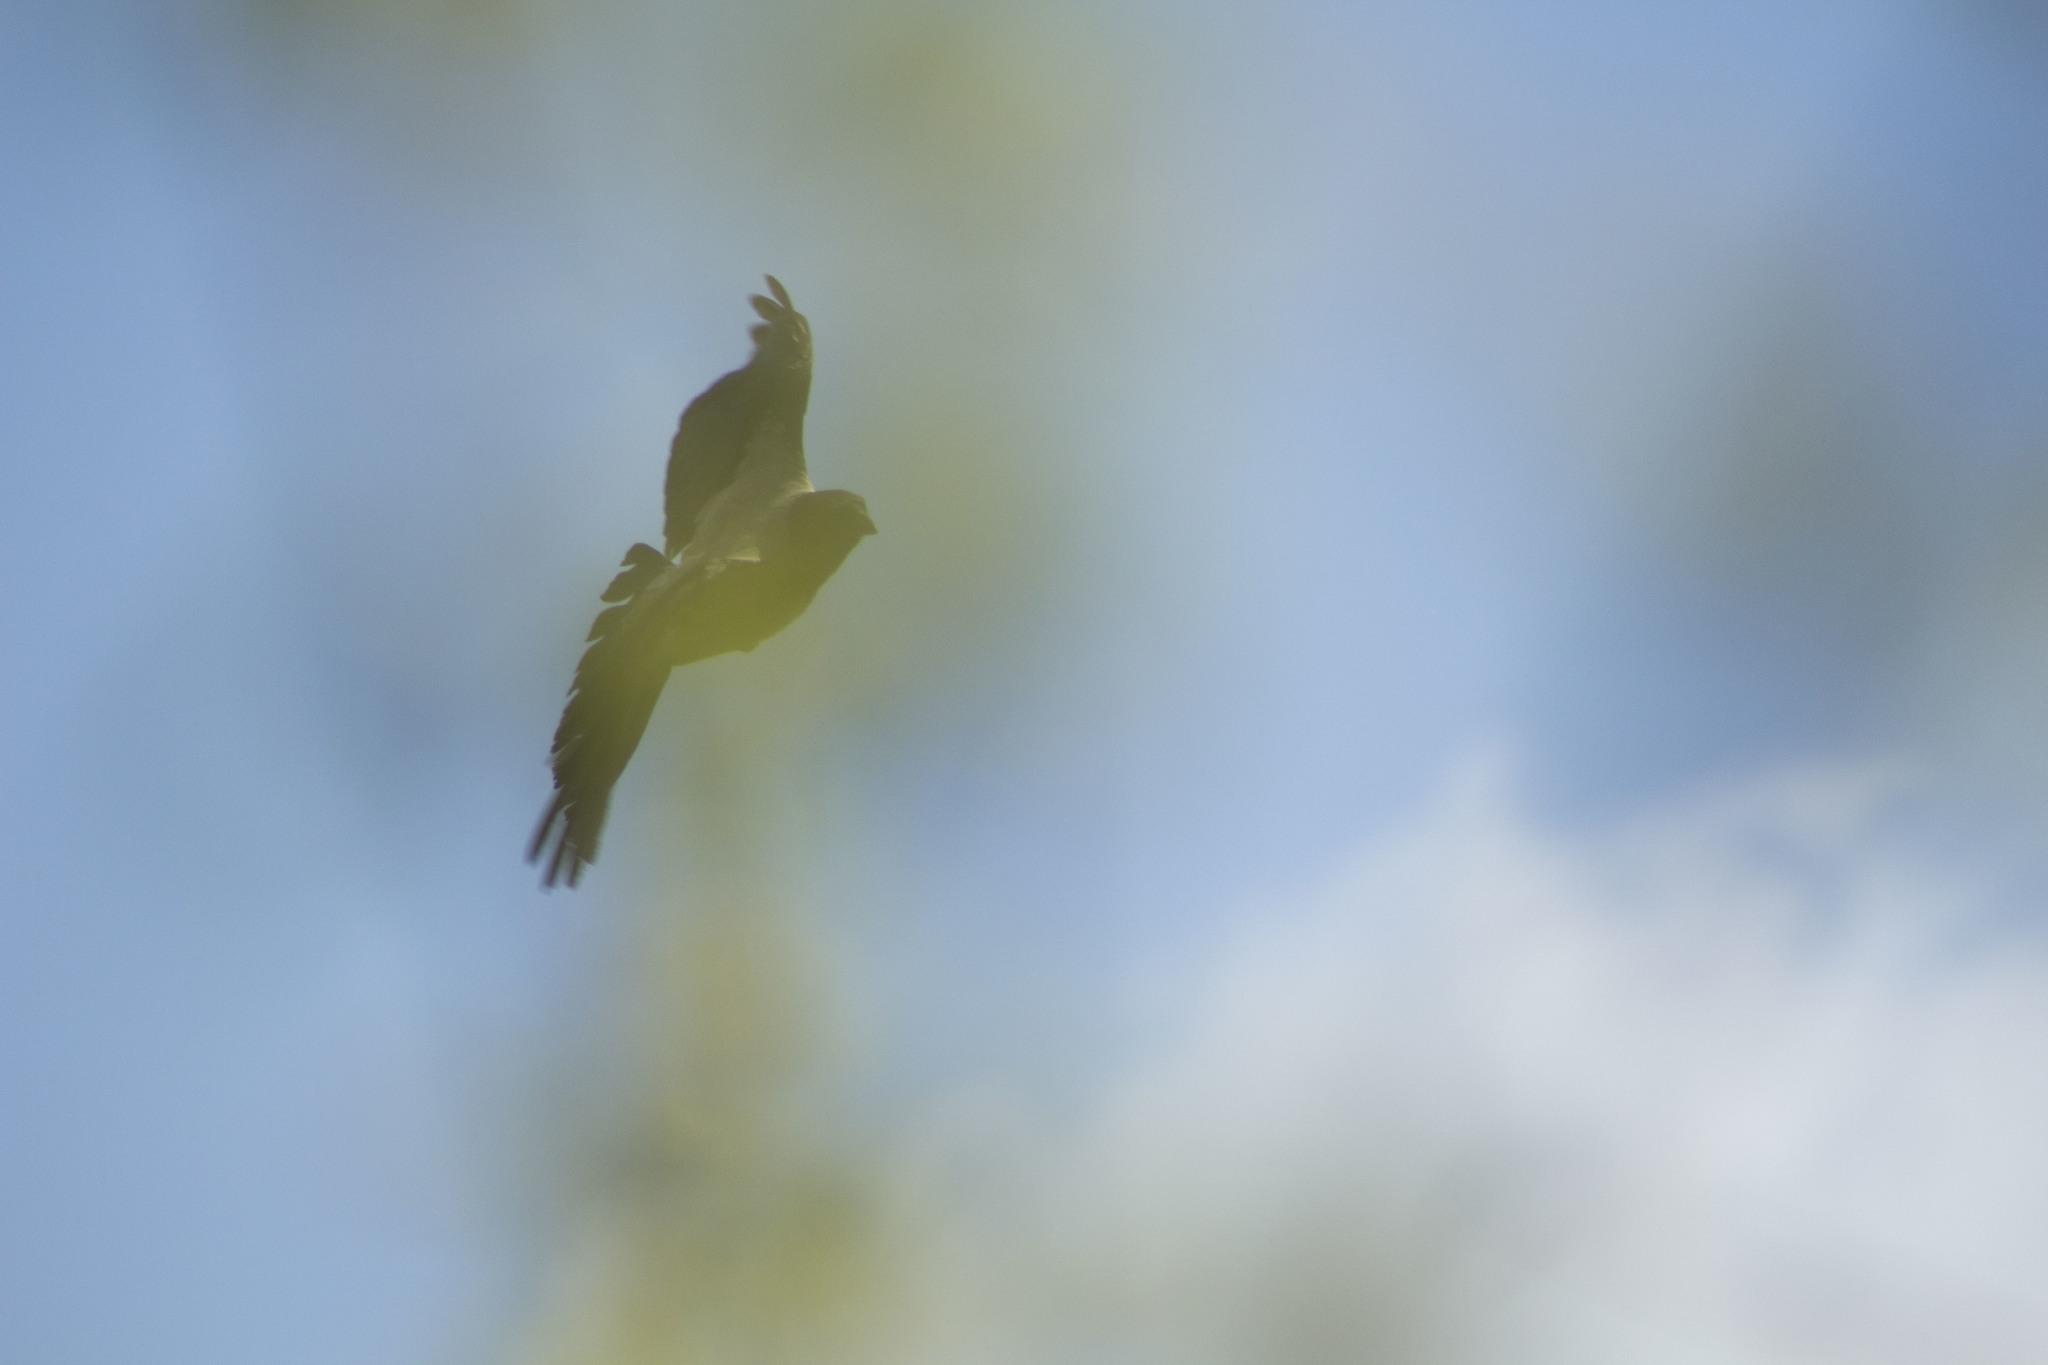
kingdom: Animalia
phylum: Chordata
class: Aves
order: Passeriformes
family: Corvidae
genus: Corvus
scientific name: Corvus cornix
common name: Hooded crow
